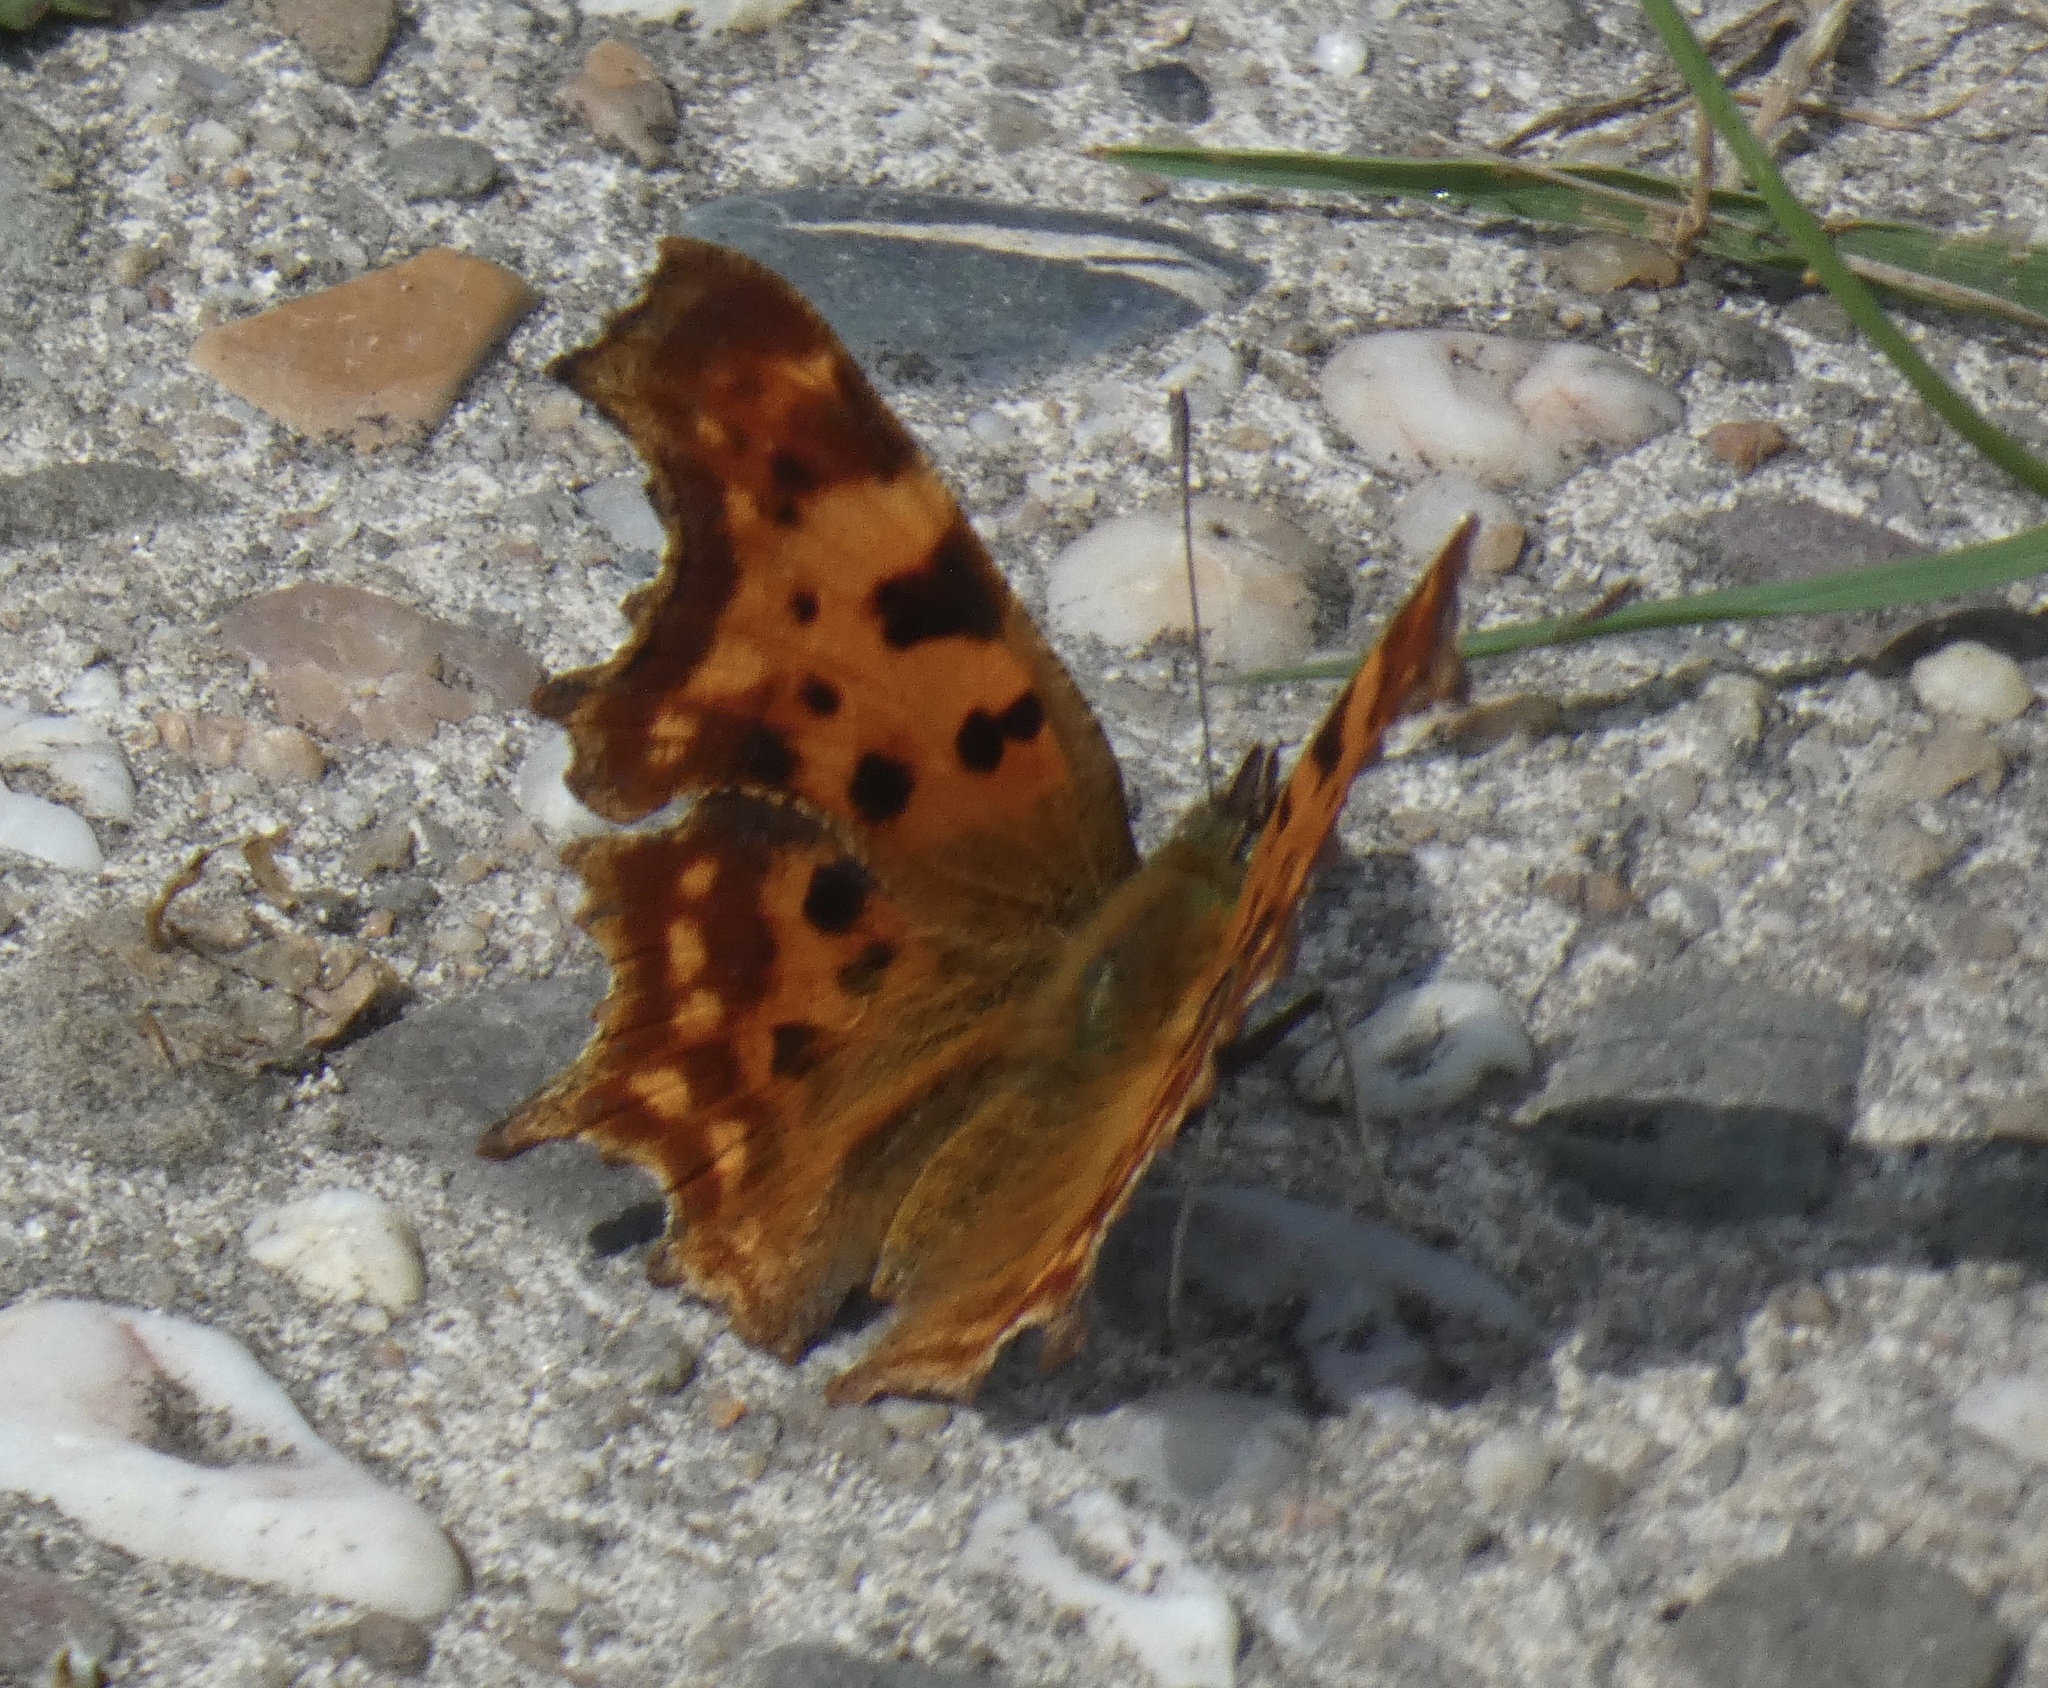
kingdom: Animalia
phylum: Arthropoda
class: Insecta
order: Lepidoptera
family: Nymphalidae
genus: Polygonia
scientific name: Polygonia c-album
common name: Comma
